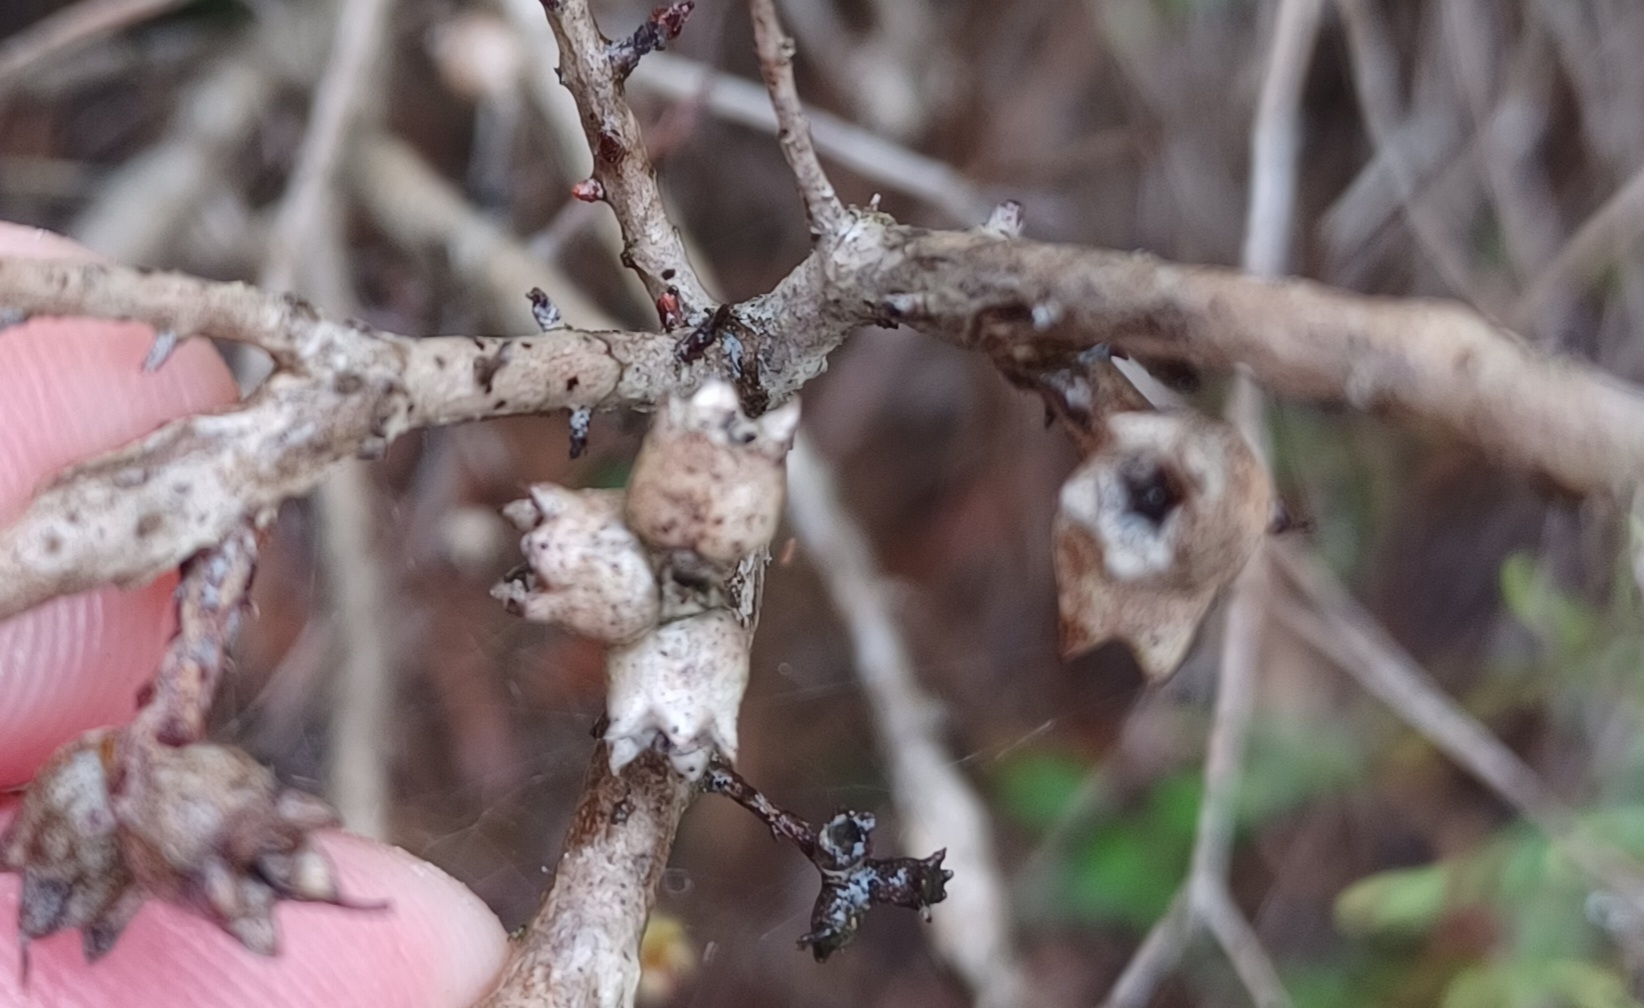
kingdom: Plantae
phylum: Tracheophyta
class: Magnoliopsida
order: Myrtales
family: Myrtaceae
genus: Melaleuca
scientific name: Melaleuca thymifolia
